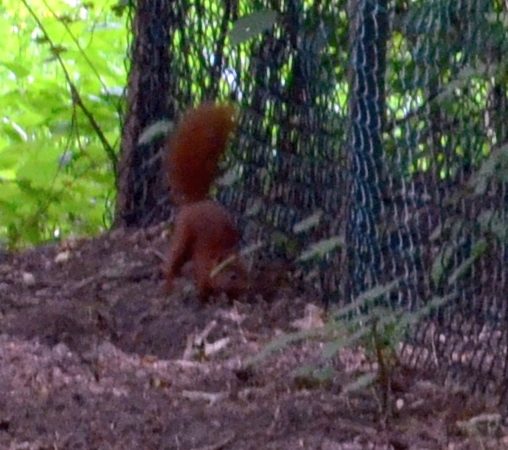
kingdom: Animalia
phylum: Chordata
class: Mammalia
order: Rodentia
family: Sciuridae
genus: Sciurus
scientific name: Sciurus vulgaris
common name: Eurasian red squirrel
